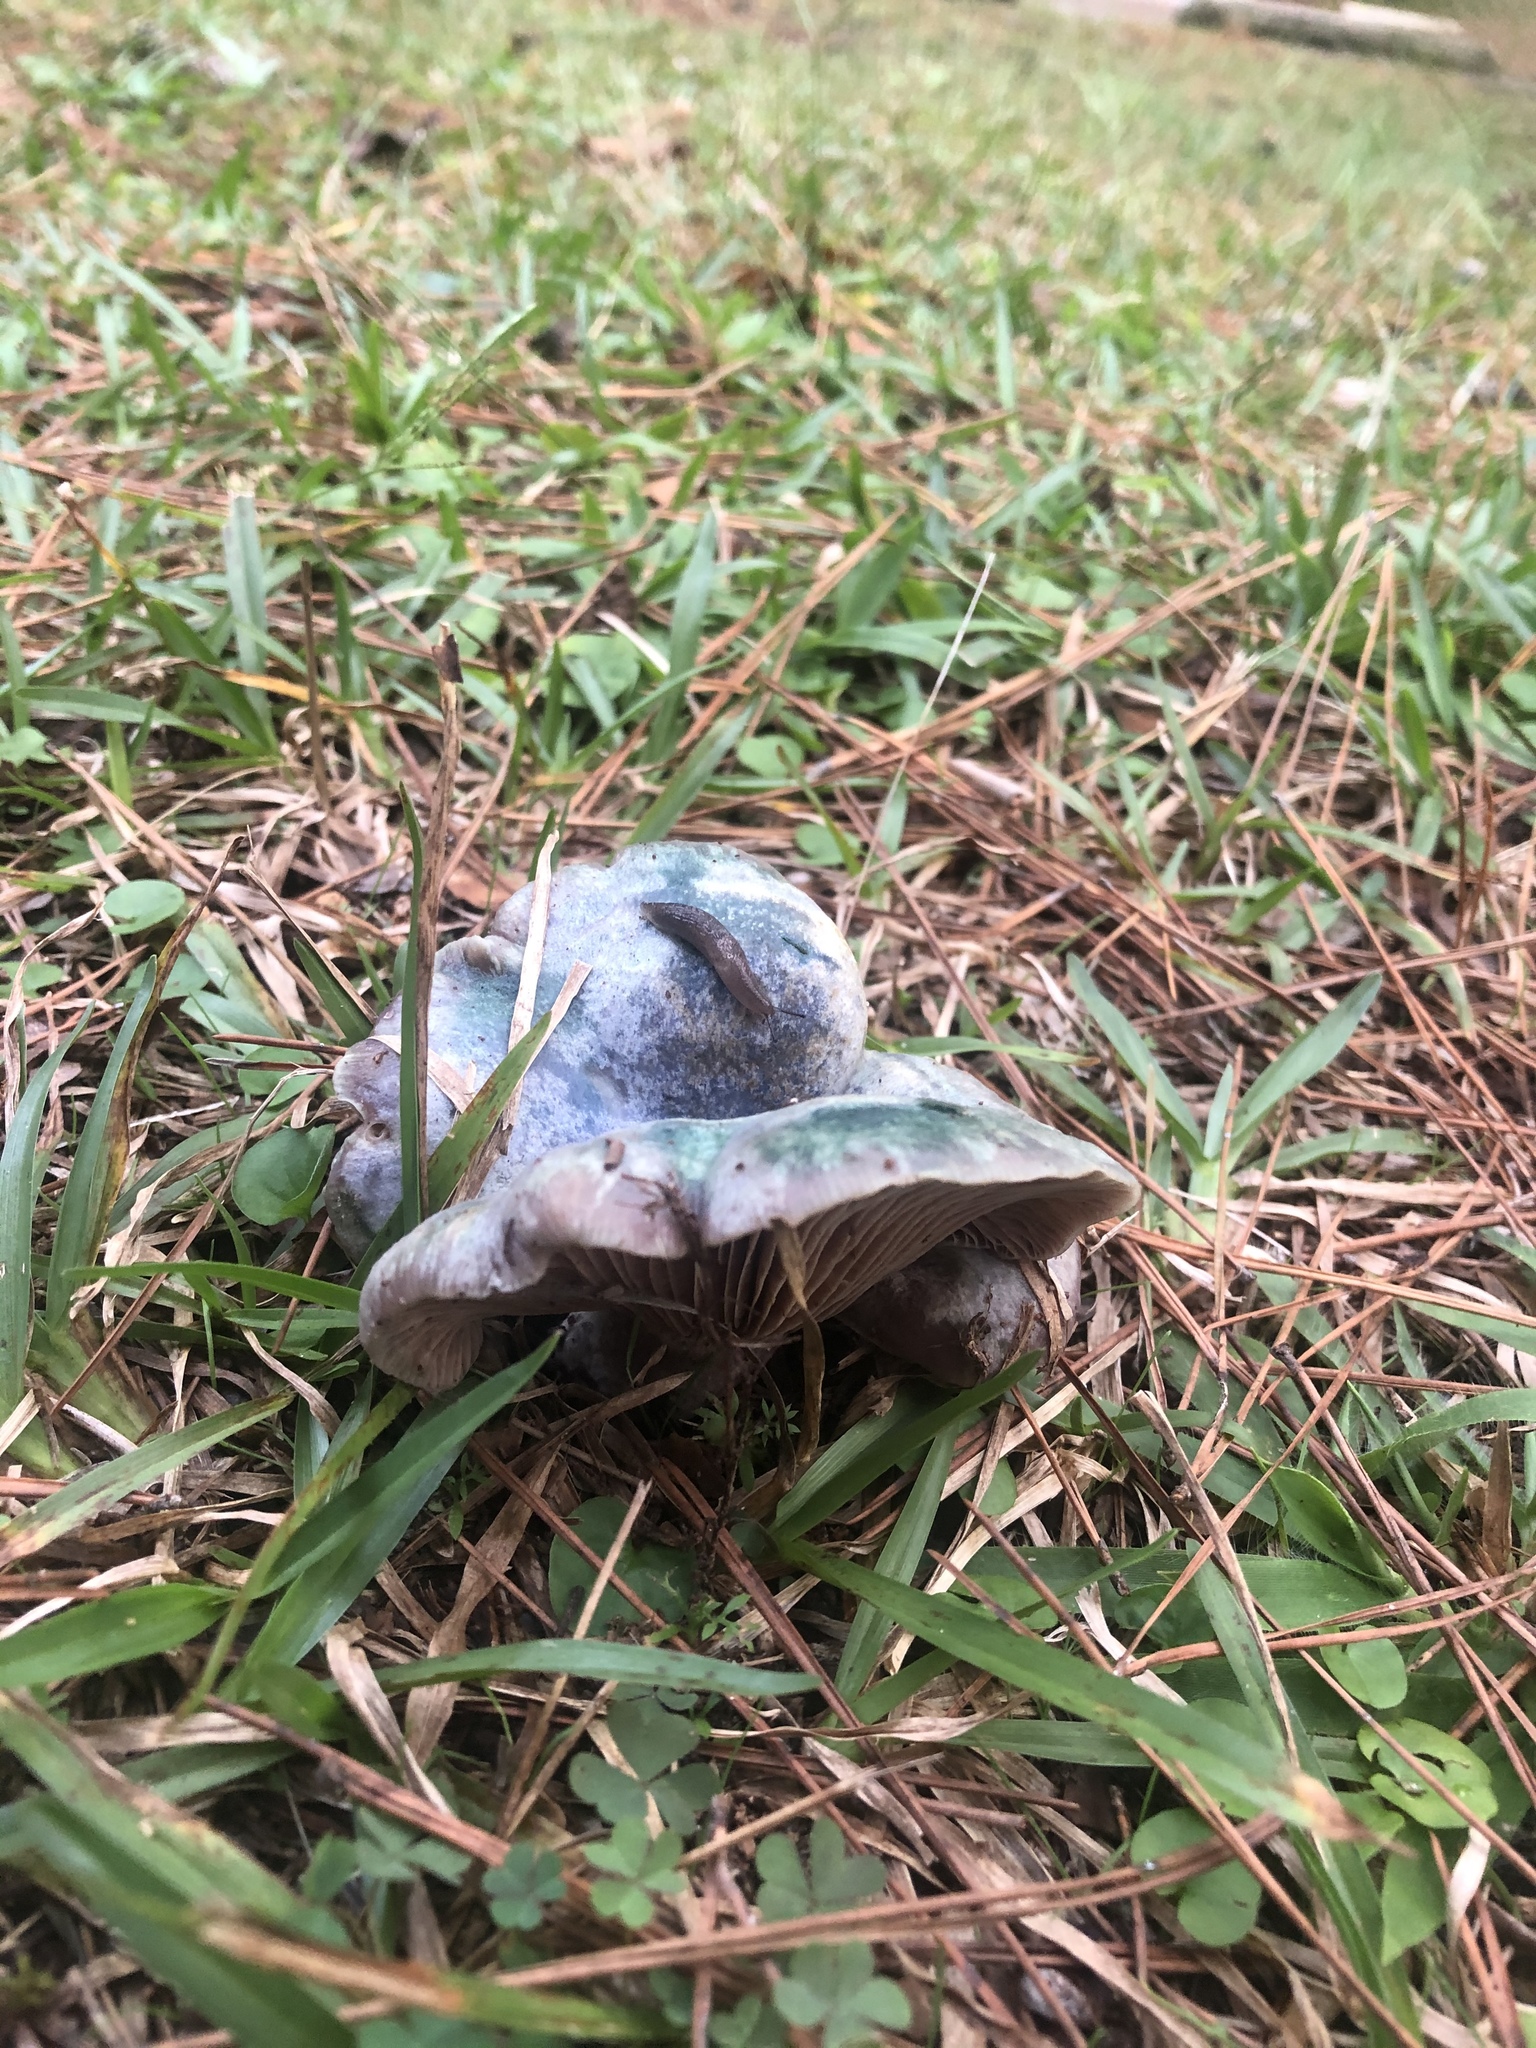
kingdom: Fungi
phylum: Basidiomycota
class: Agaricomycetes
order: Russulales
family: Russulaceae
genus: Lactarius
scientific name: Lactarius paradoxus
